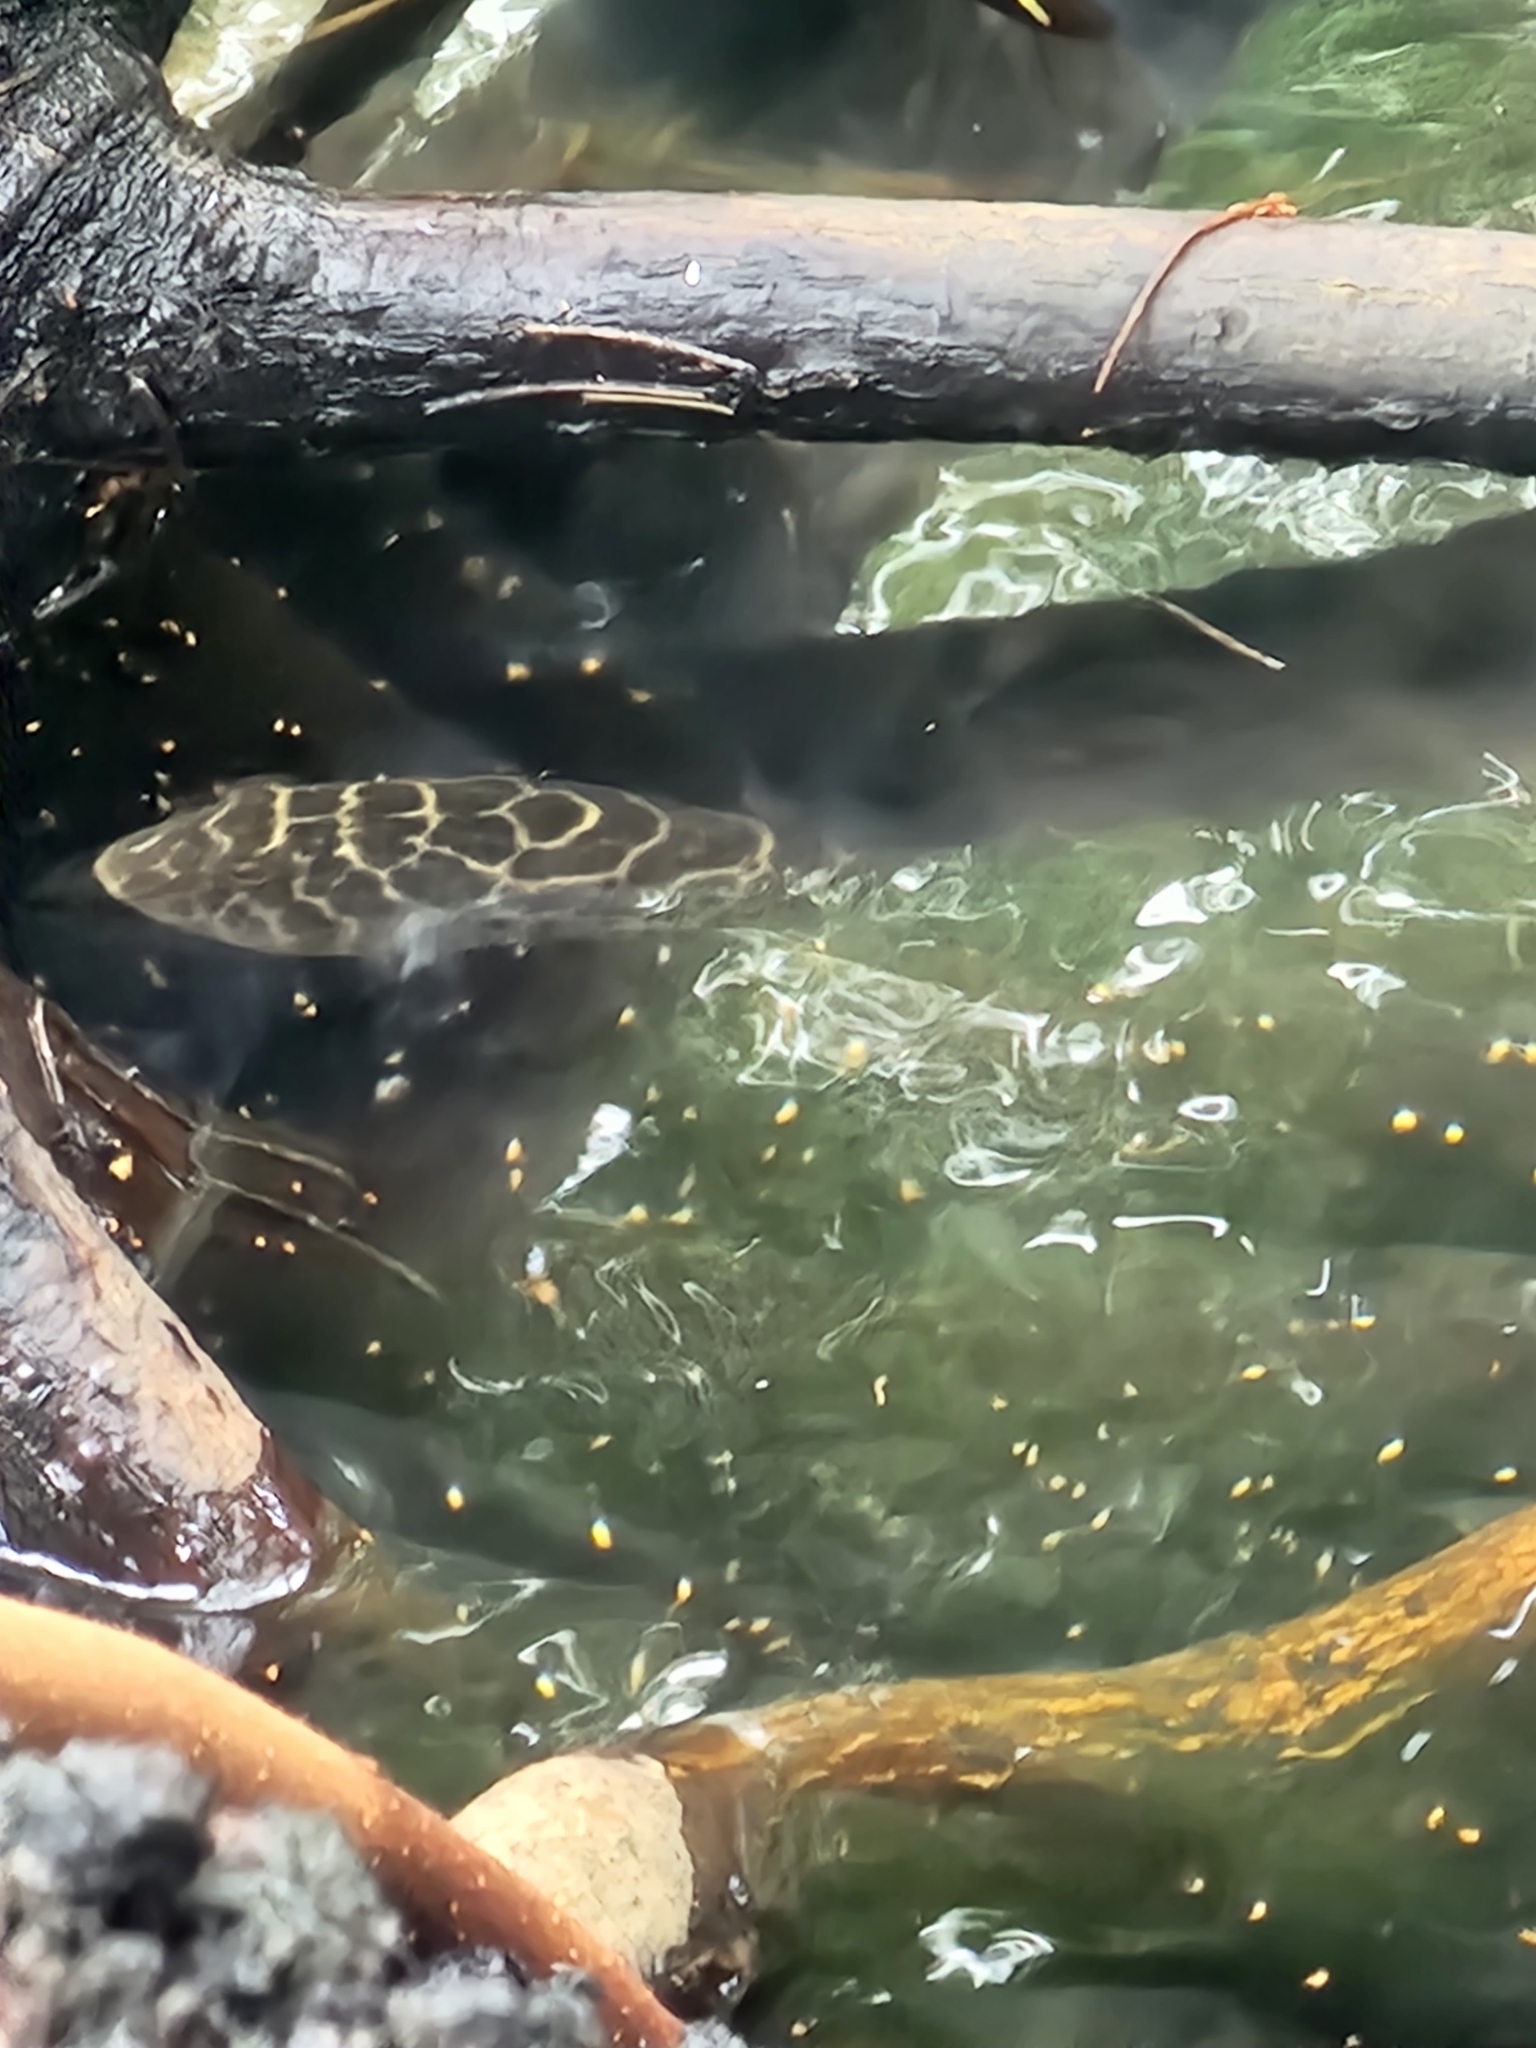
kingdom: Animalia
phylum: Chordata
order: Tetraodontiformes
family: Tetraodontidae
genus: Sphoeroides
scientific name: Sphoeroides testudineus
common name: Checkered puffer
